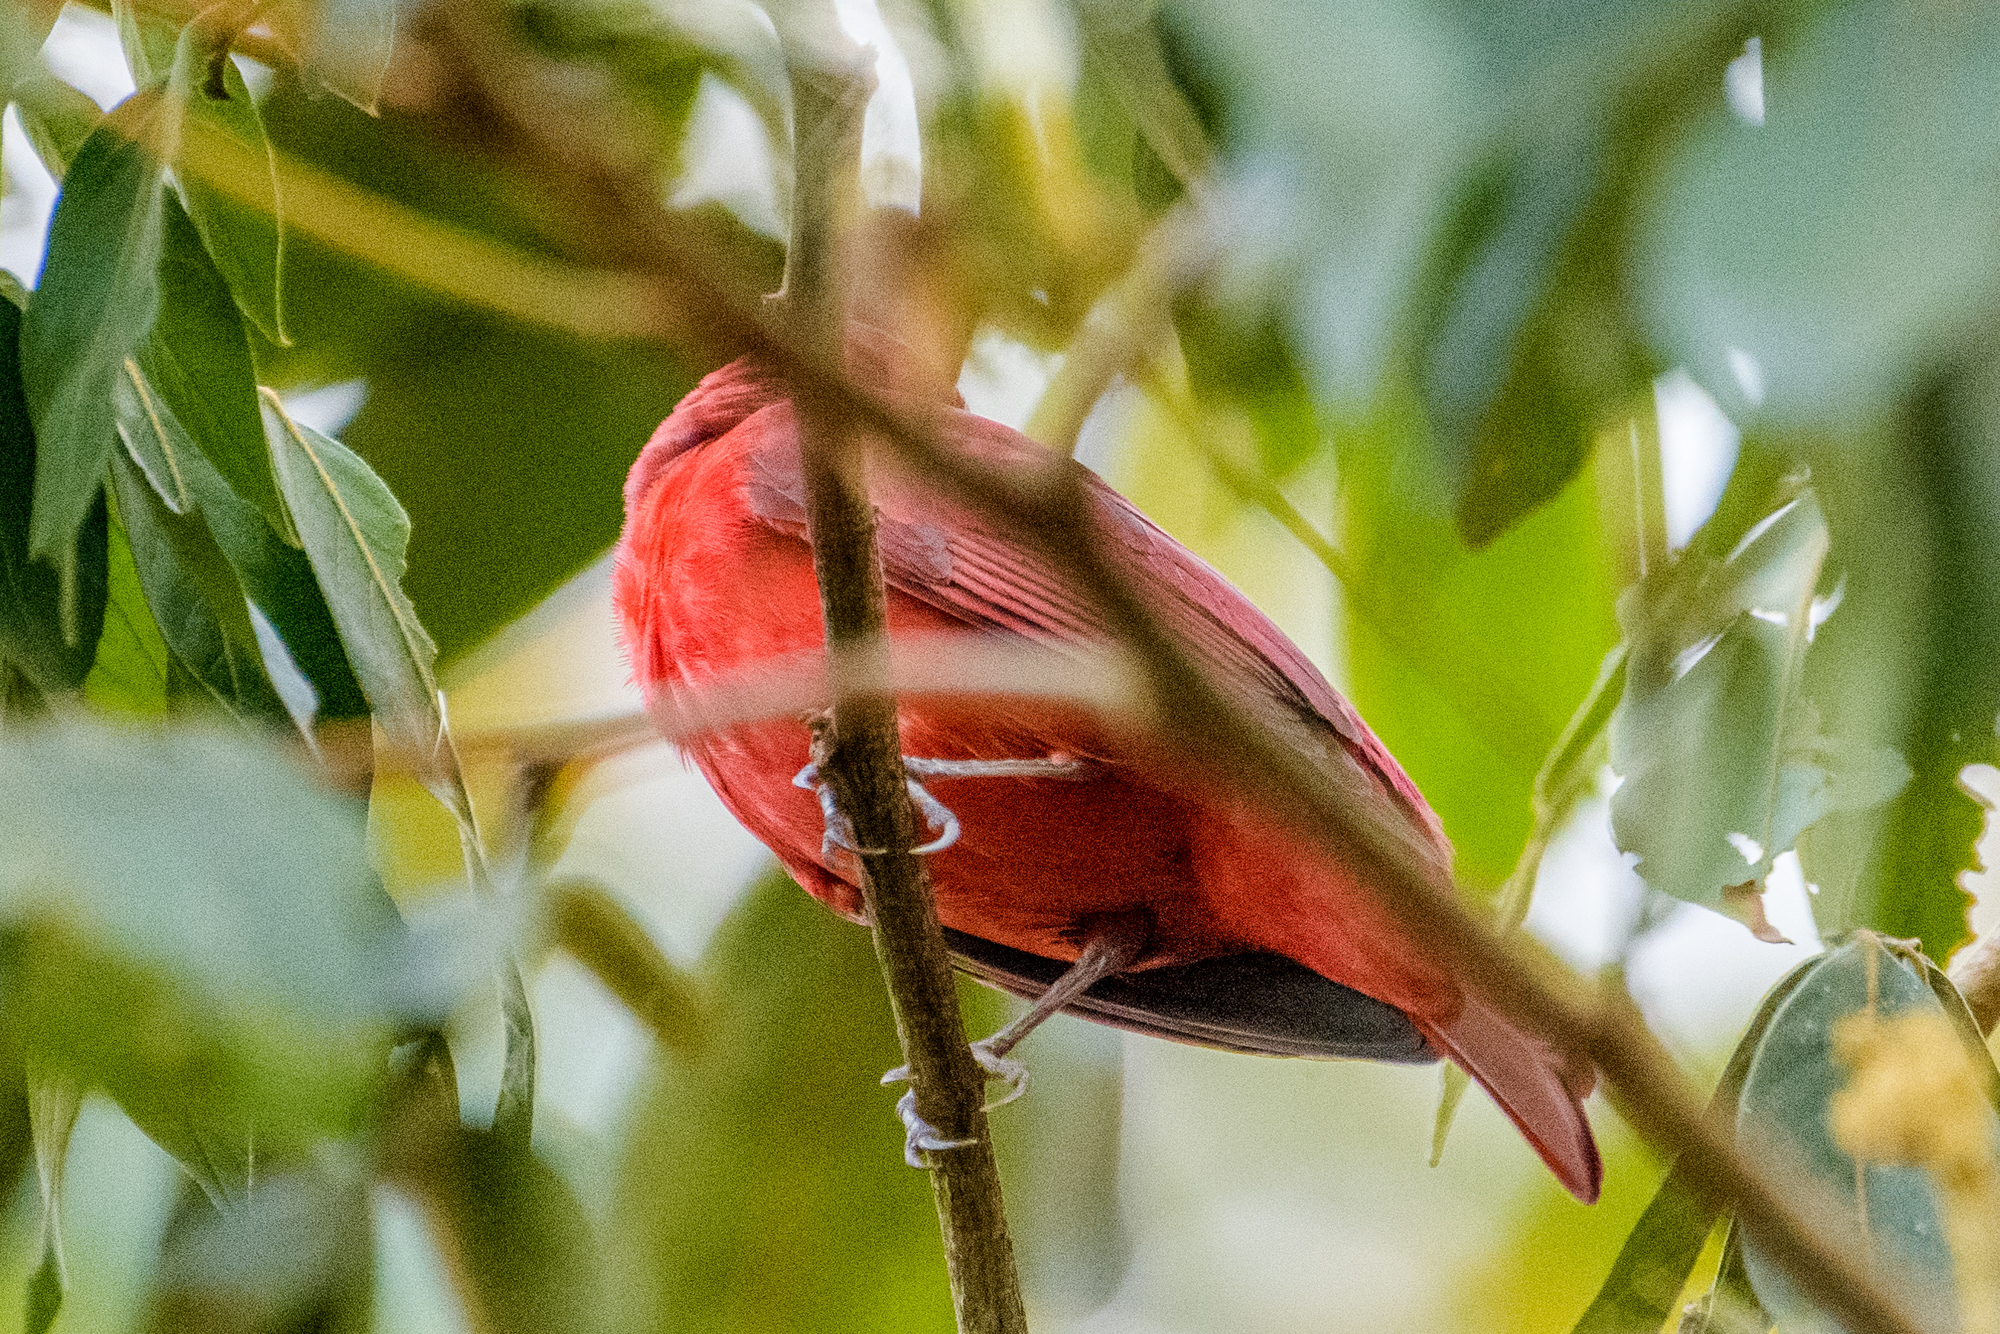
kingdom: Animalia
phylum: Chordata
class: Aves
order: Passeriformes
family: Cardinalidae
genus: Piranga
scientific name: Piranga rubra
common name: Summer tanager
